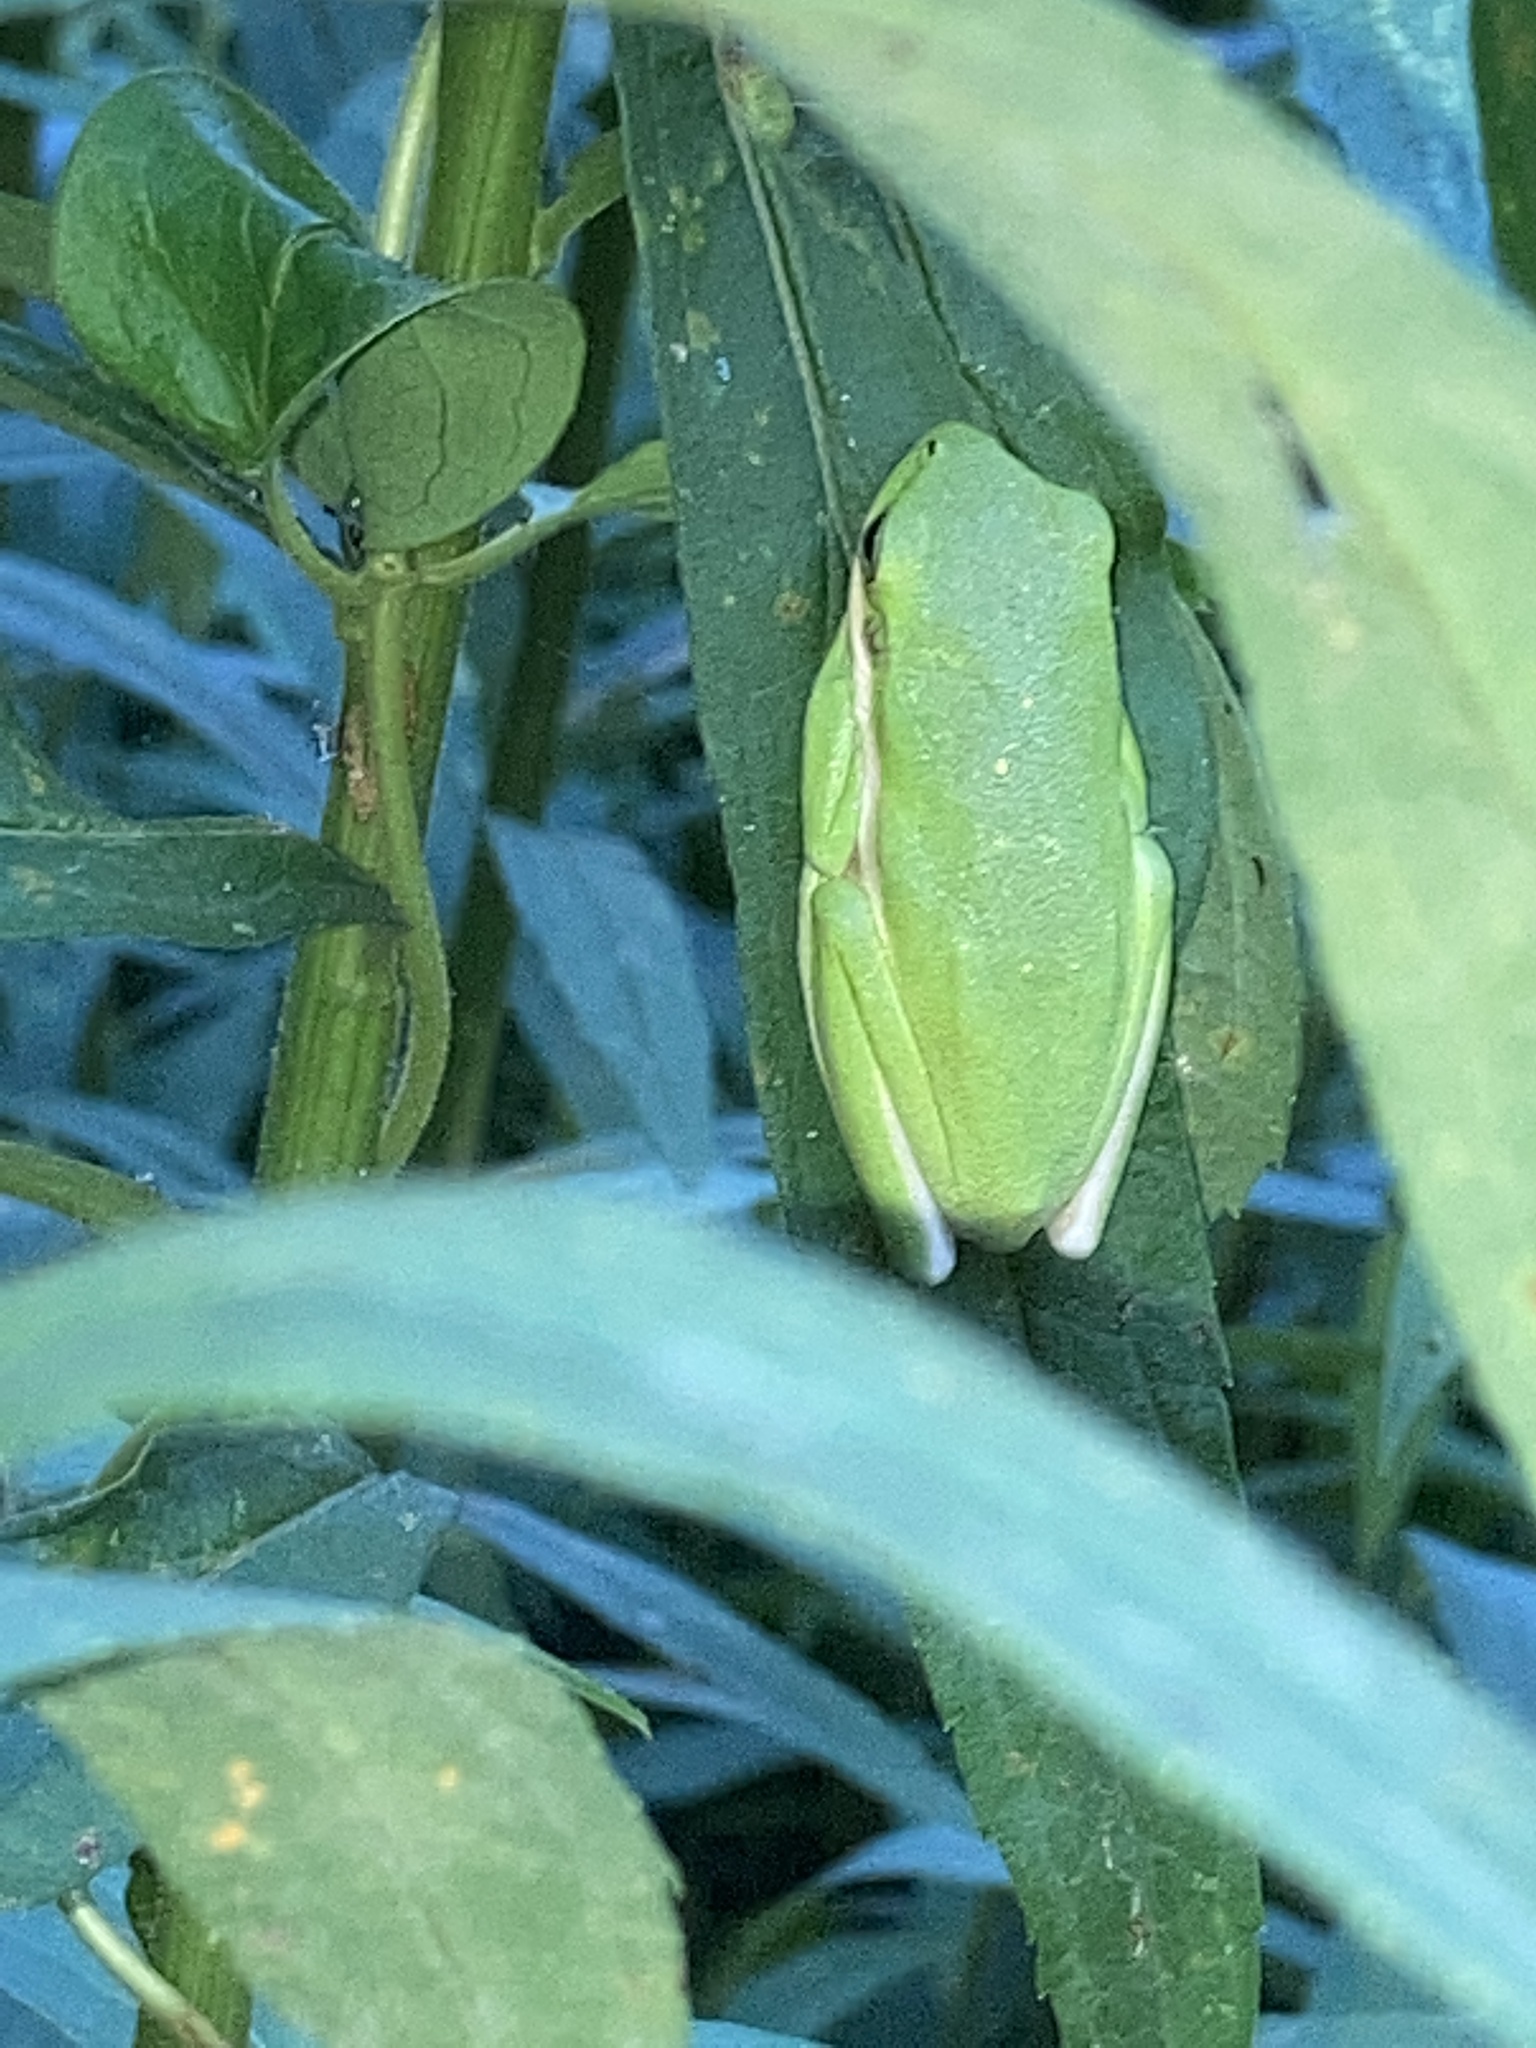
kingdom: Animalia
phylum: Chordata
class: Amphibia
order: Anura
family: Hylidae
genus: Dryophytes
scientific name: Dryophytes cinereus
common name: Green treefrog
